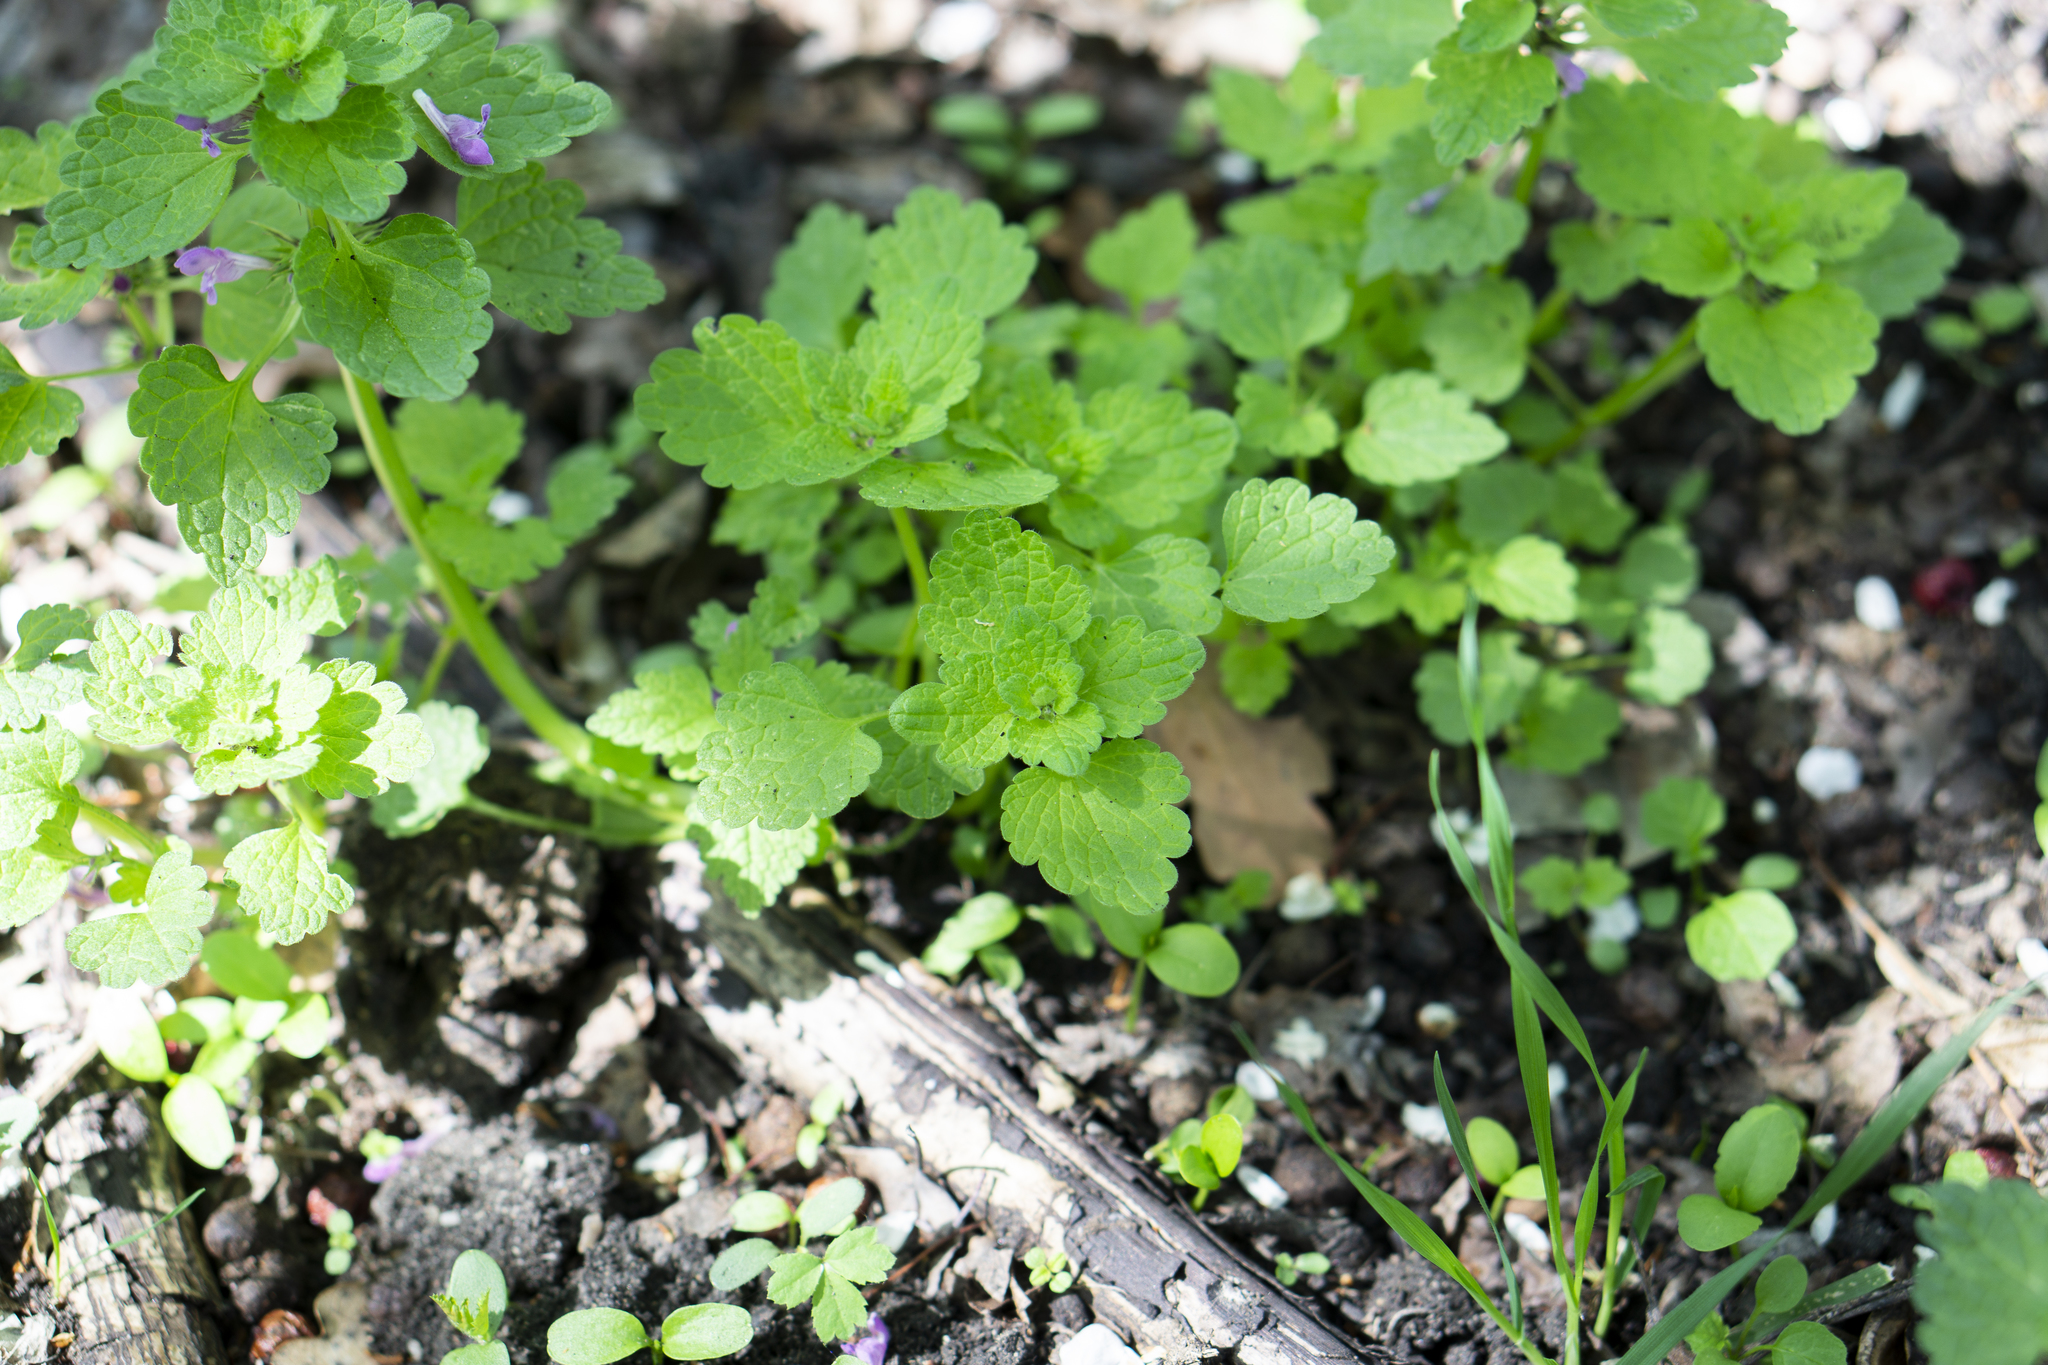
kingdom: Plantae
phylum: Tracheophyta
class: Magnoliopsida
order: Lamiales
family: Lamiaceae
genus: Lamium
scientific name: Lamium purpureum
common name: Red dead-nettle
